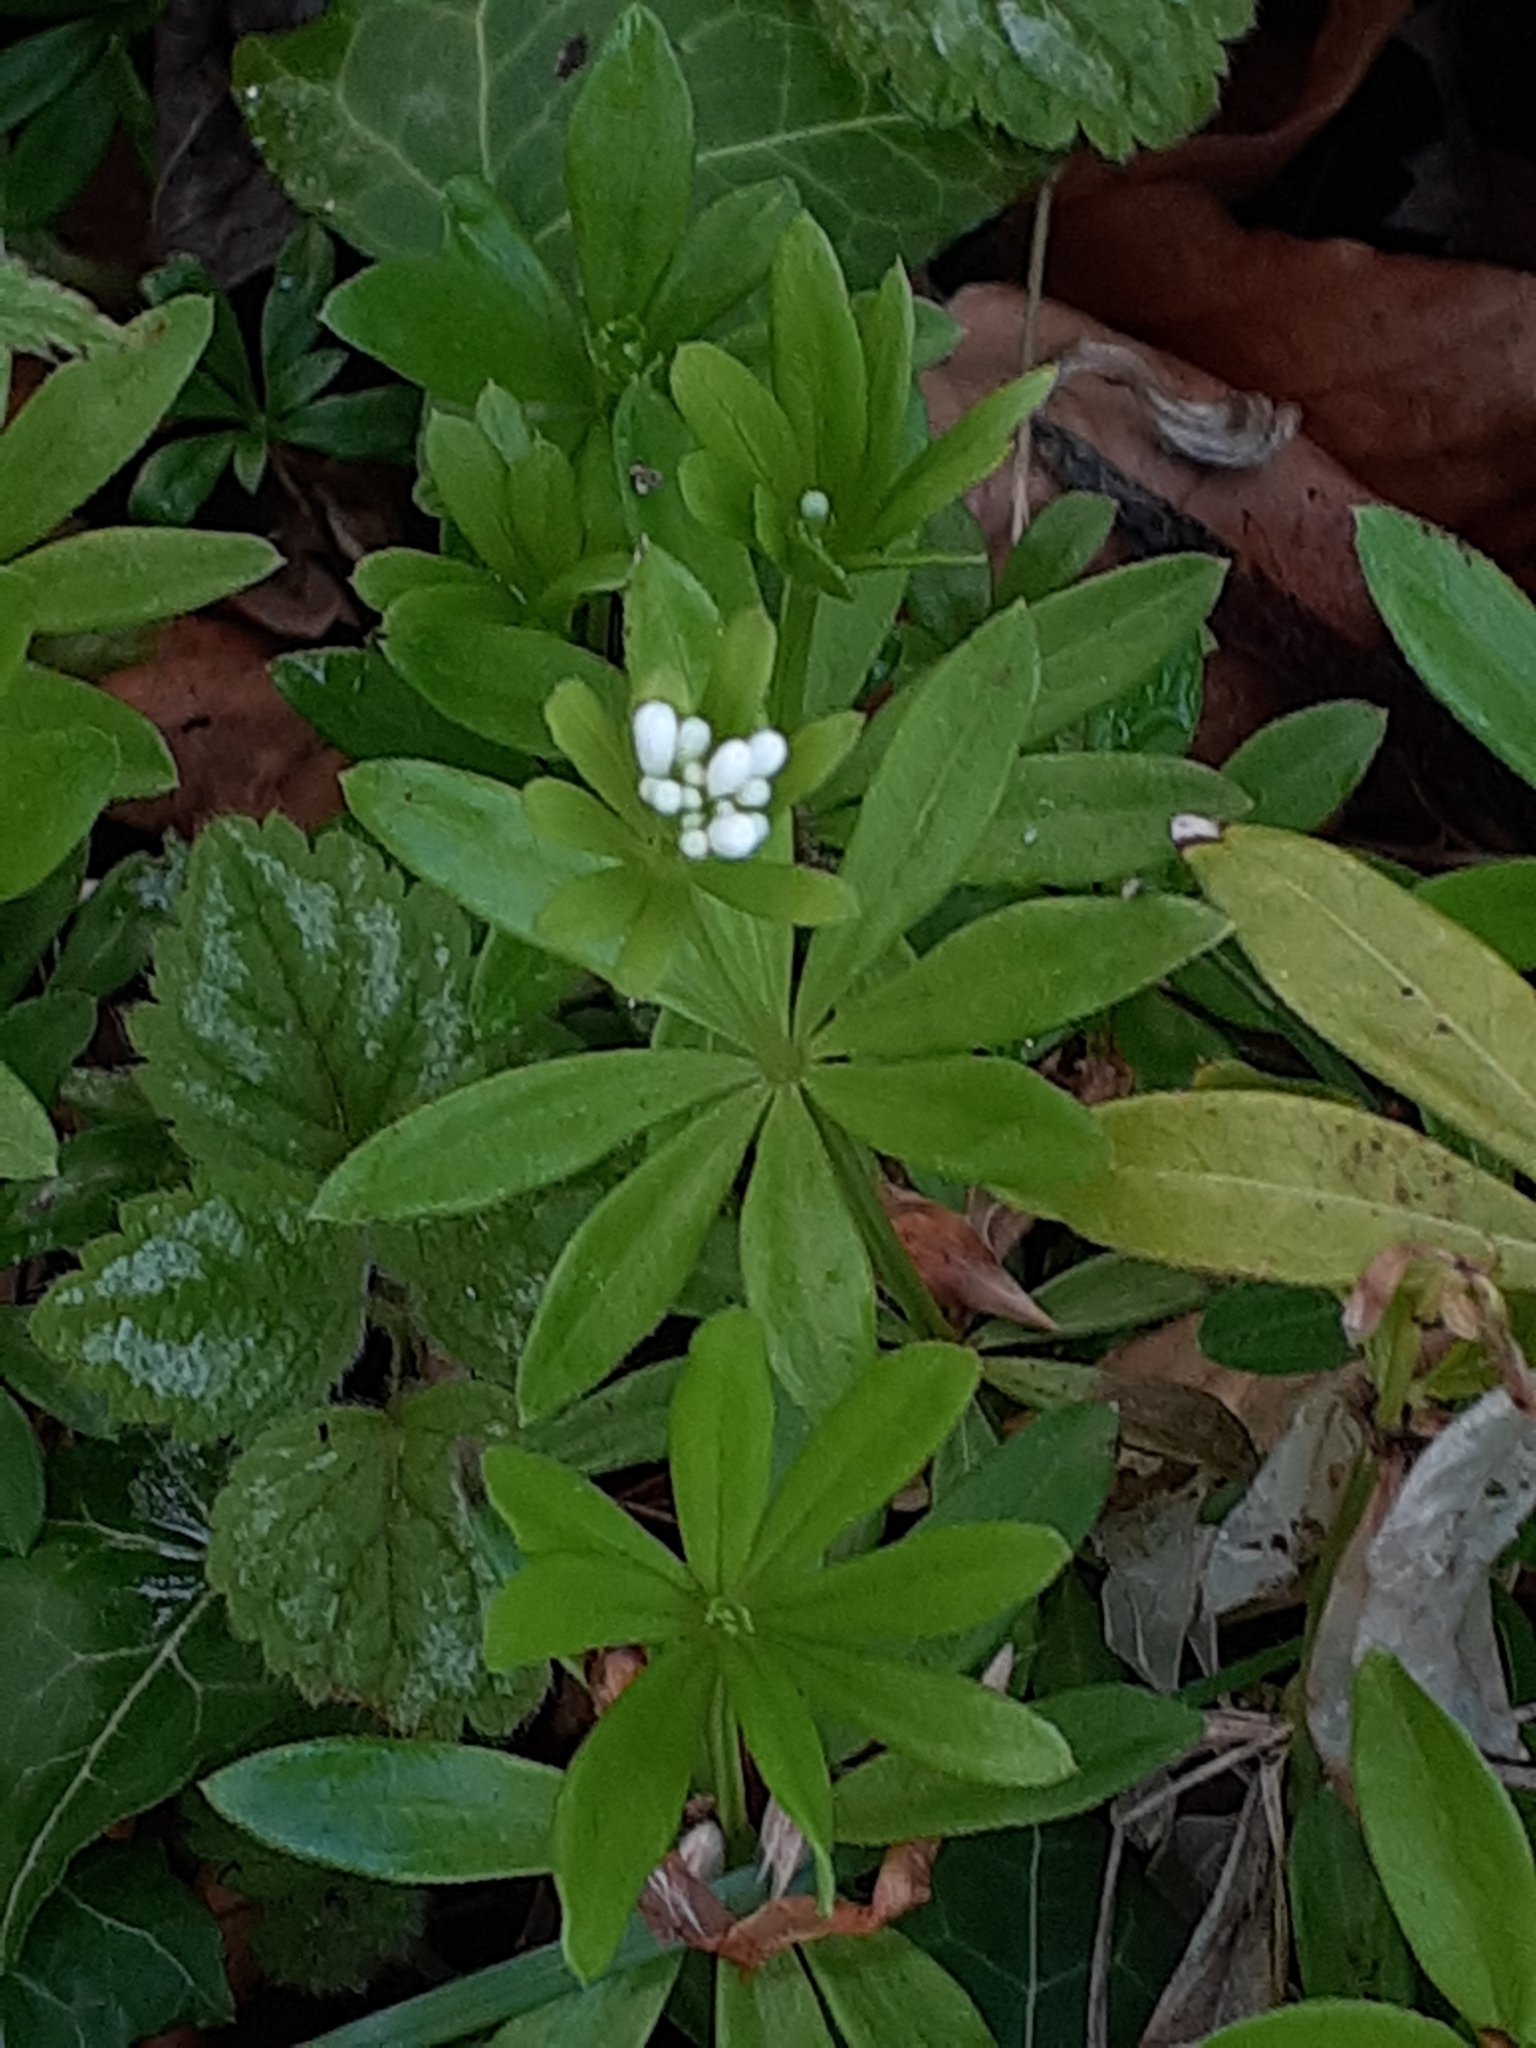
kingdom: Plantae
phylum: Tracheophyta
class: Magnoliopsida
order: Gentianales
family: Rubiaceae
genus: Galium
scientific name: Galium odoratum
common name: Sweet woodruff
